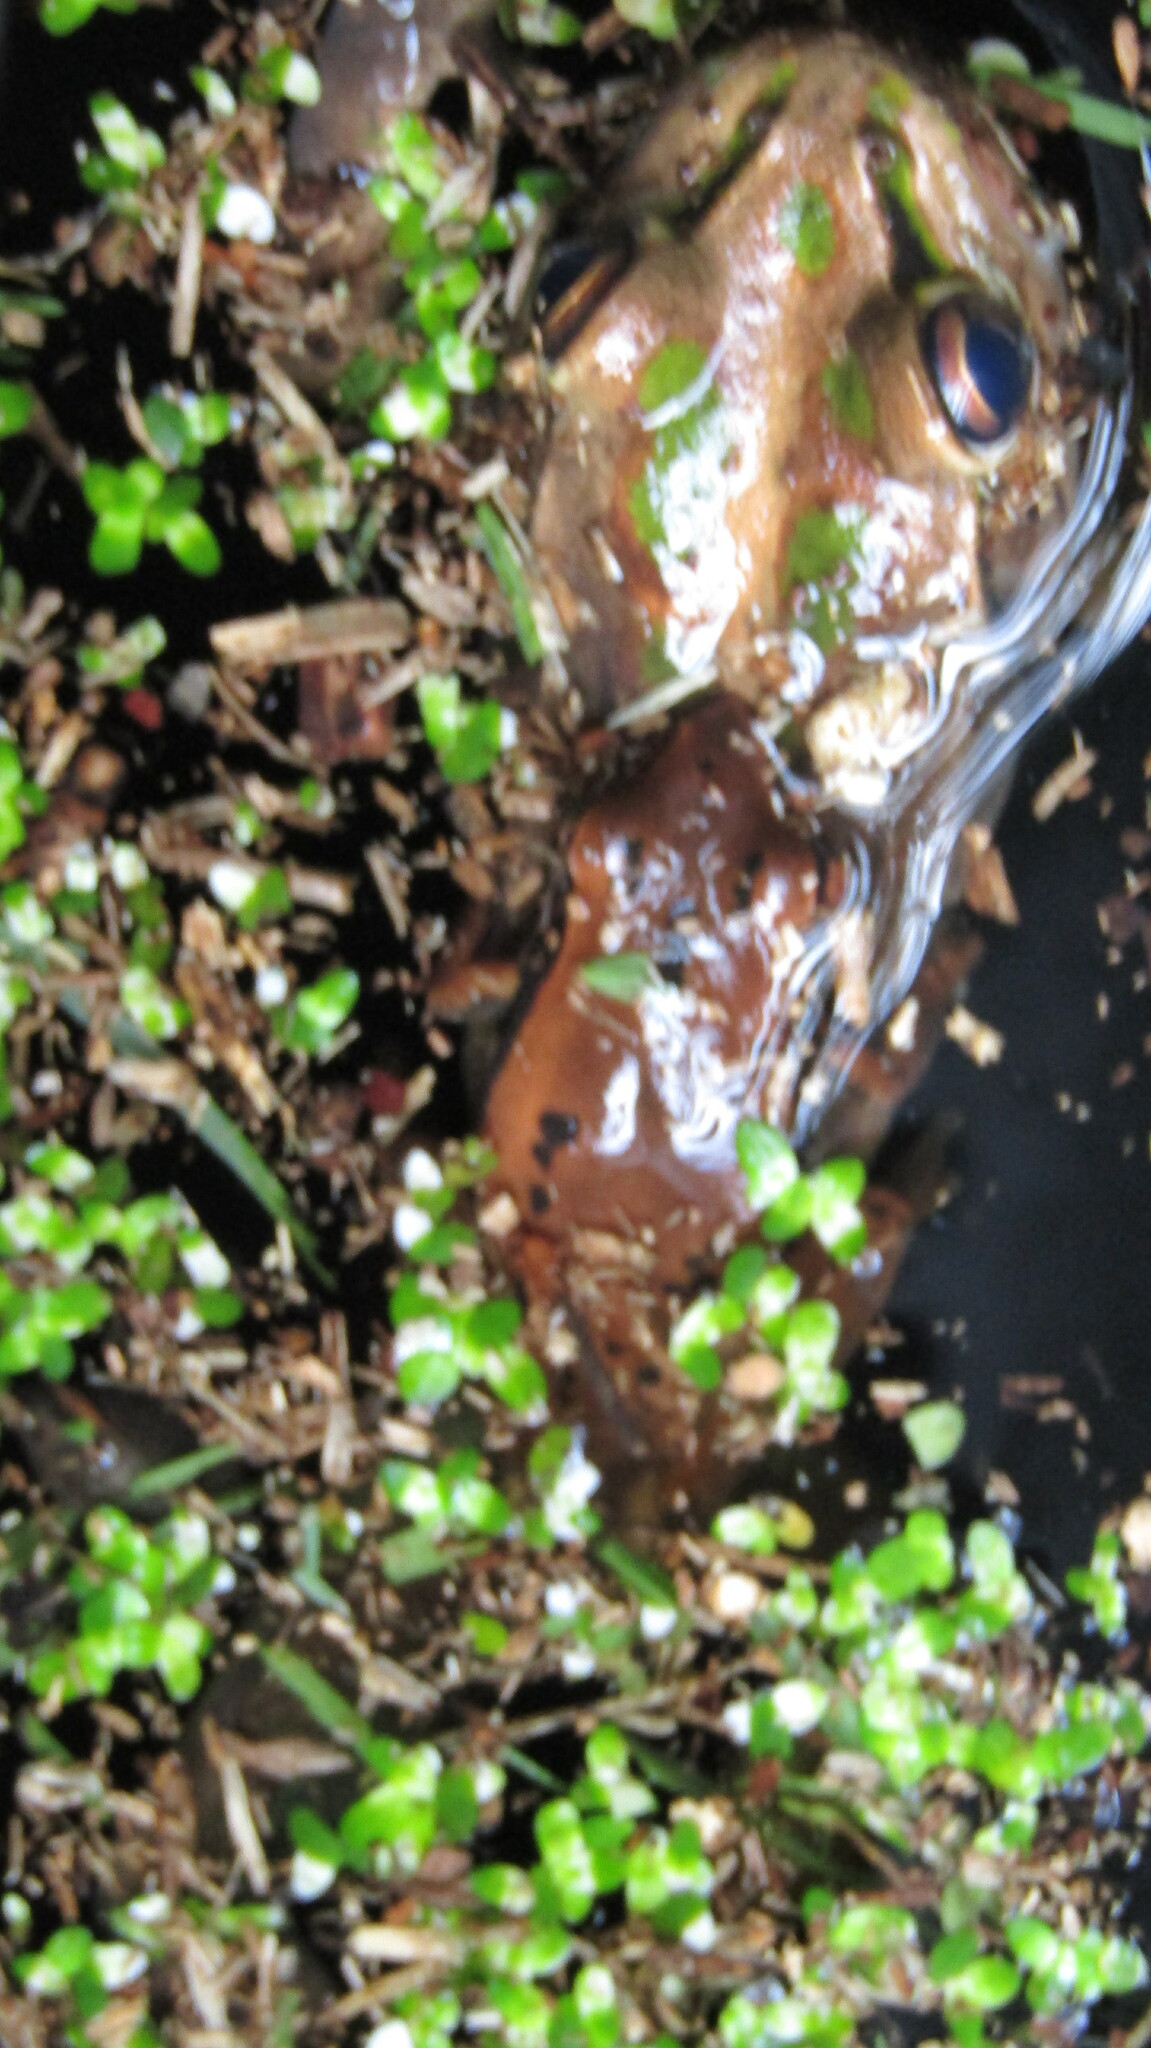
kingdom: Animalia
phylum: Chordata
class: Amphibia
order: Anura
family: Pelodryadidae
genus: Ranoidea
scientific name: Ranoidea moorei
